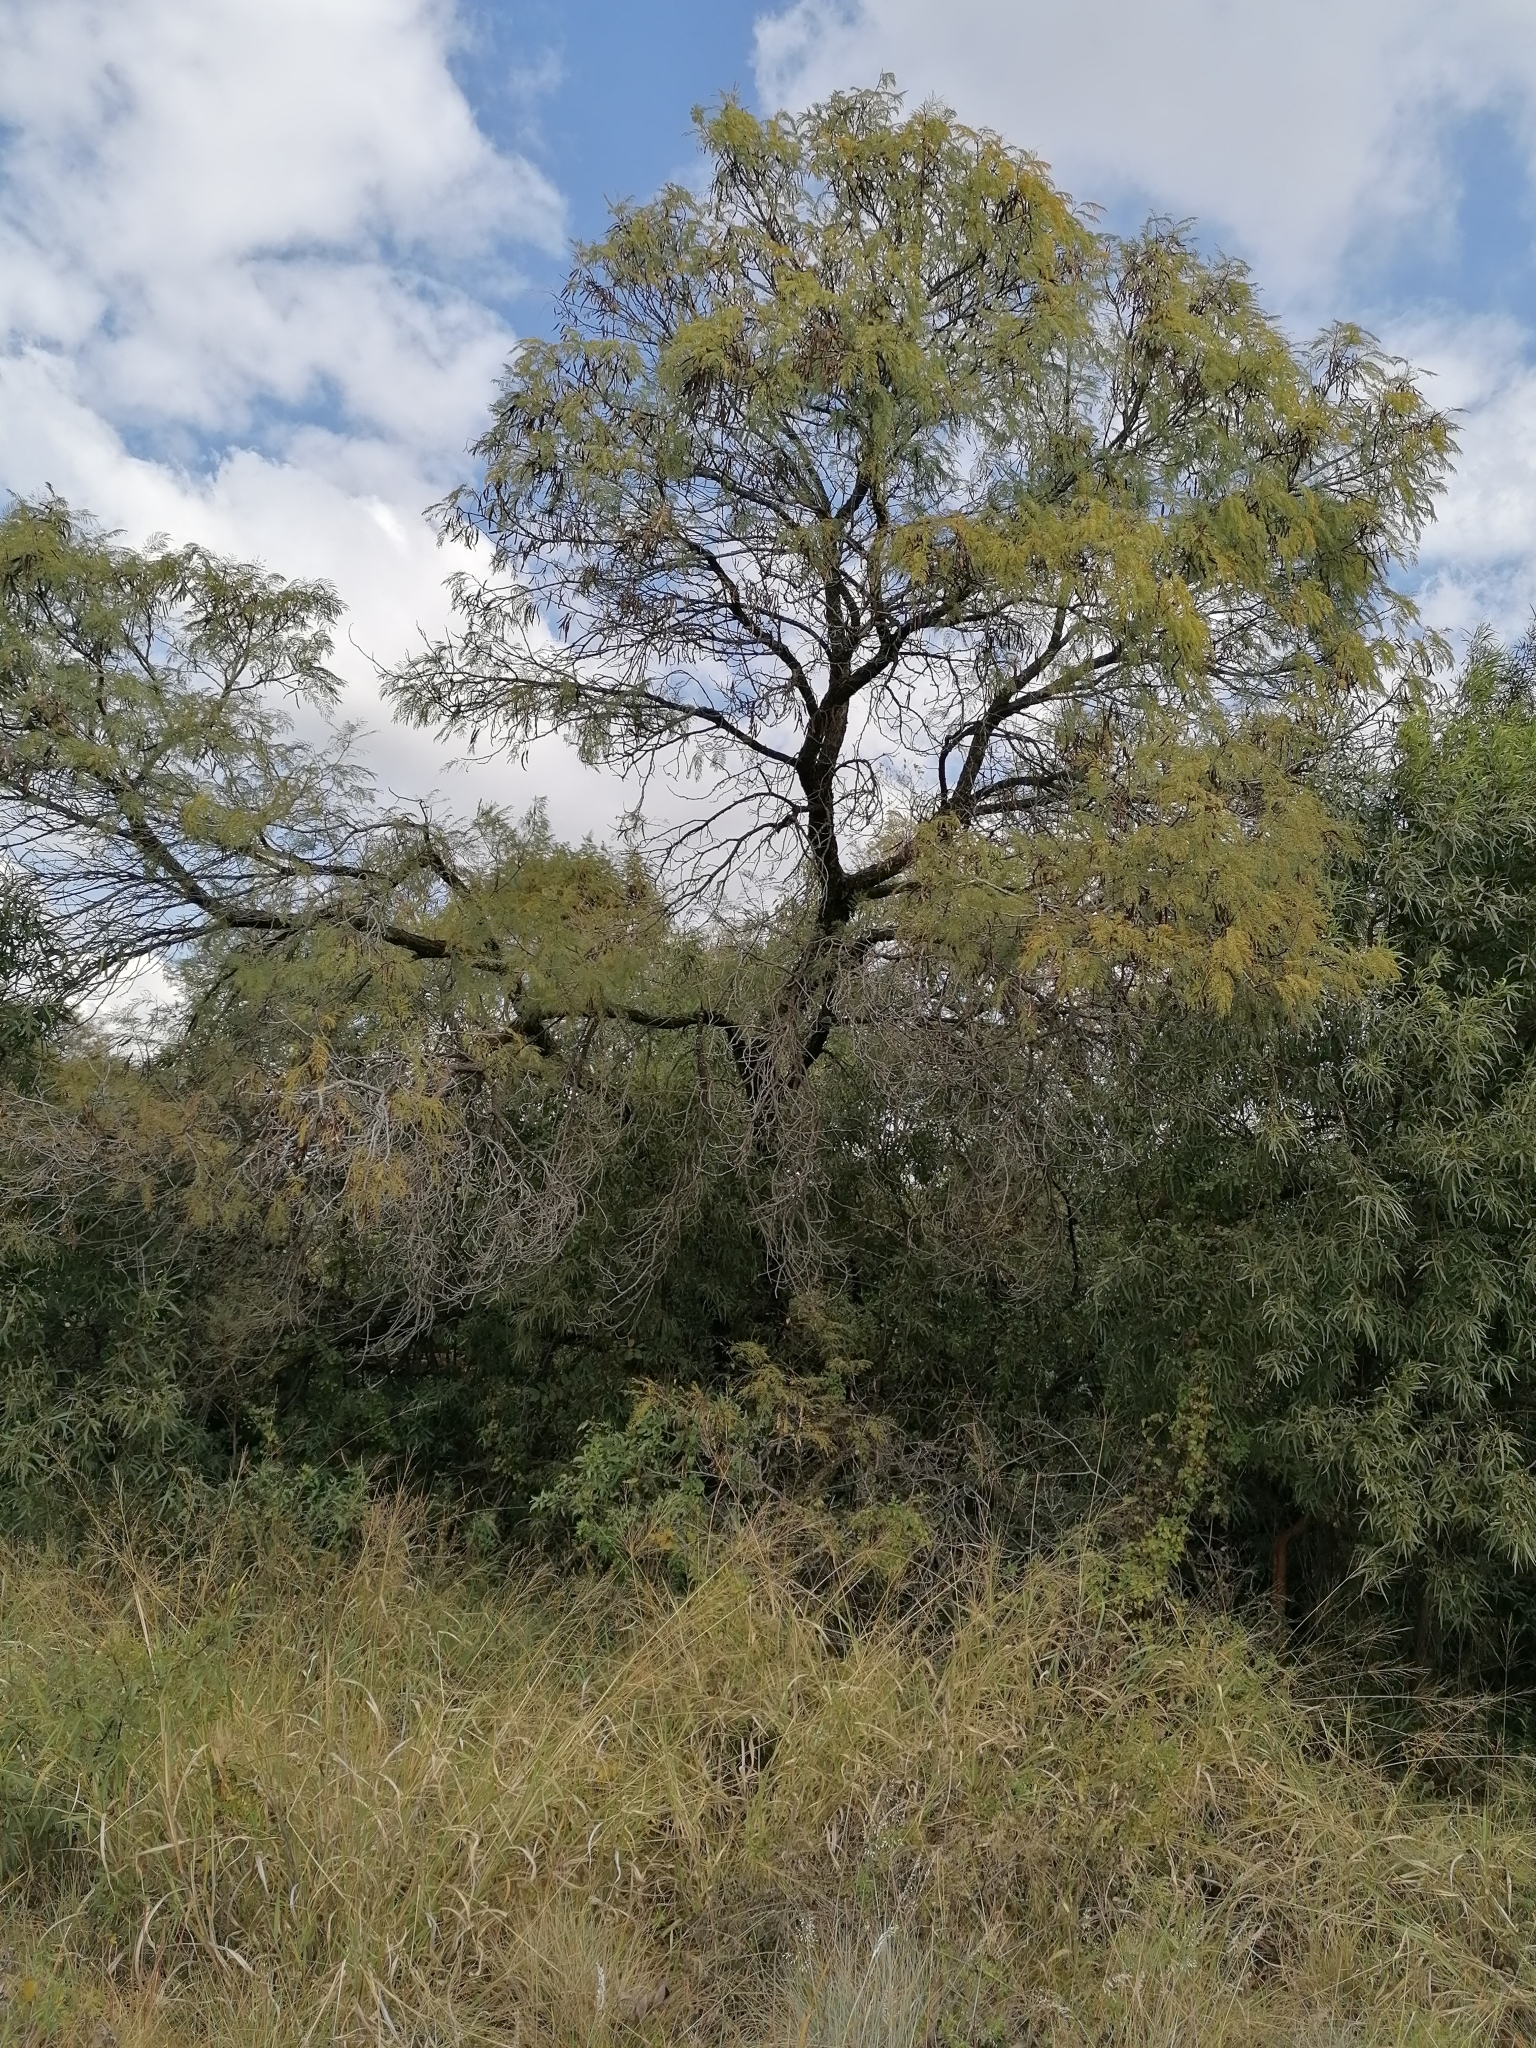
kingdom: Plantae
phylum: Tracheophyta
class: Magnoliopsida
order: Fabales
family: Fabaceae
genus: Senegalia
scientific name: Senegalia caffra
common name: Cat thorn
